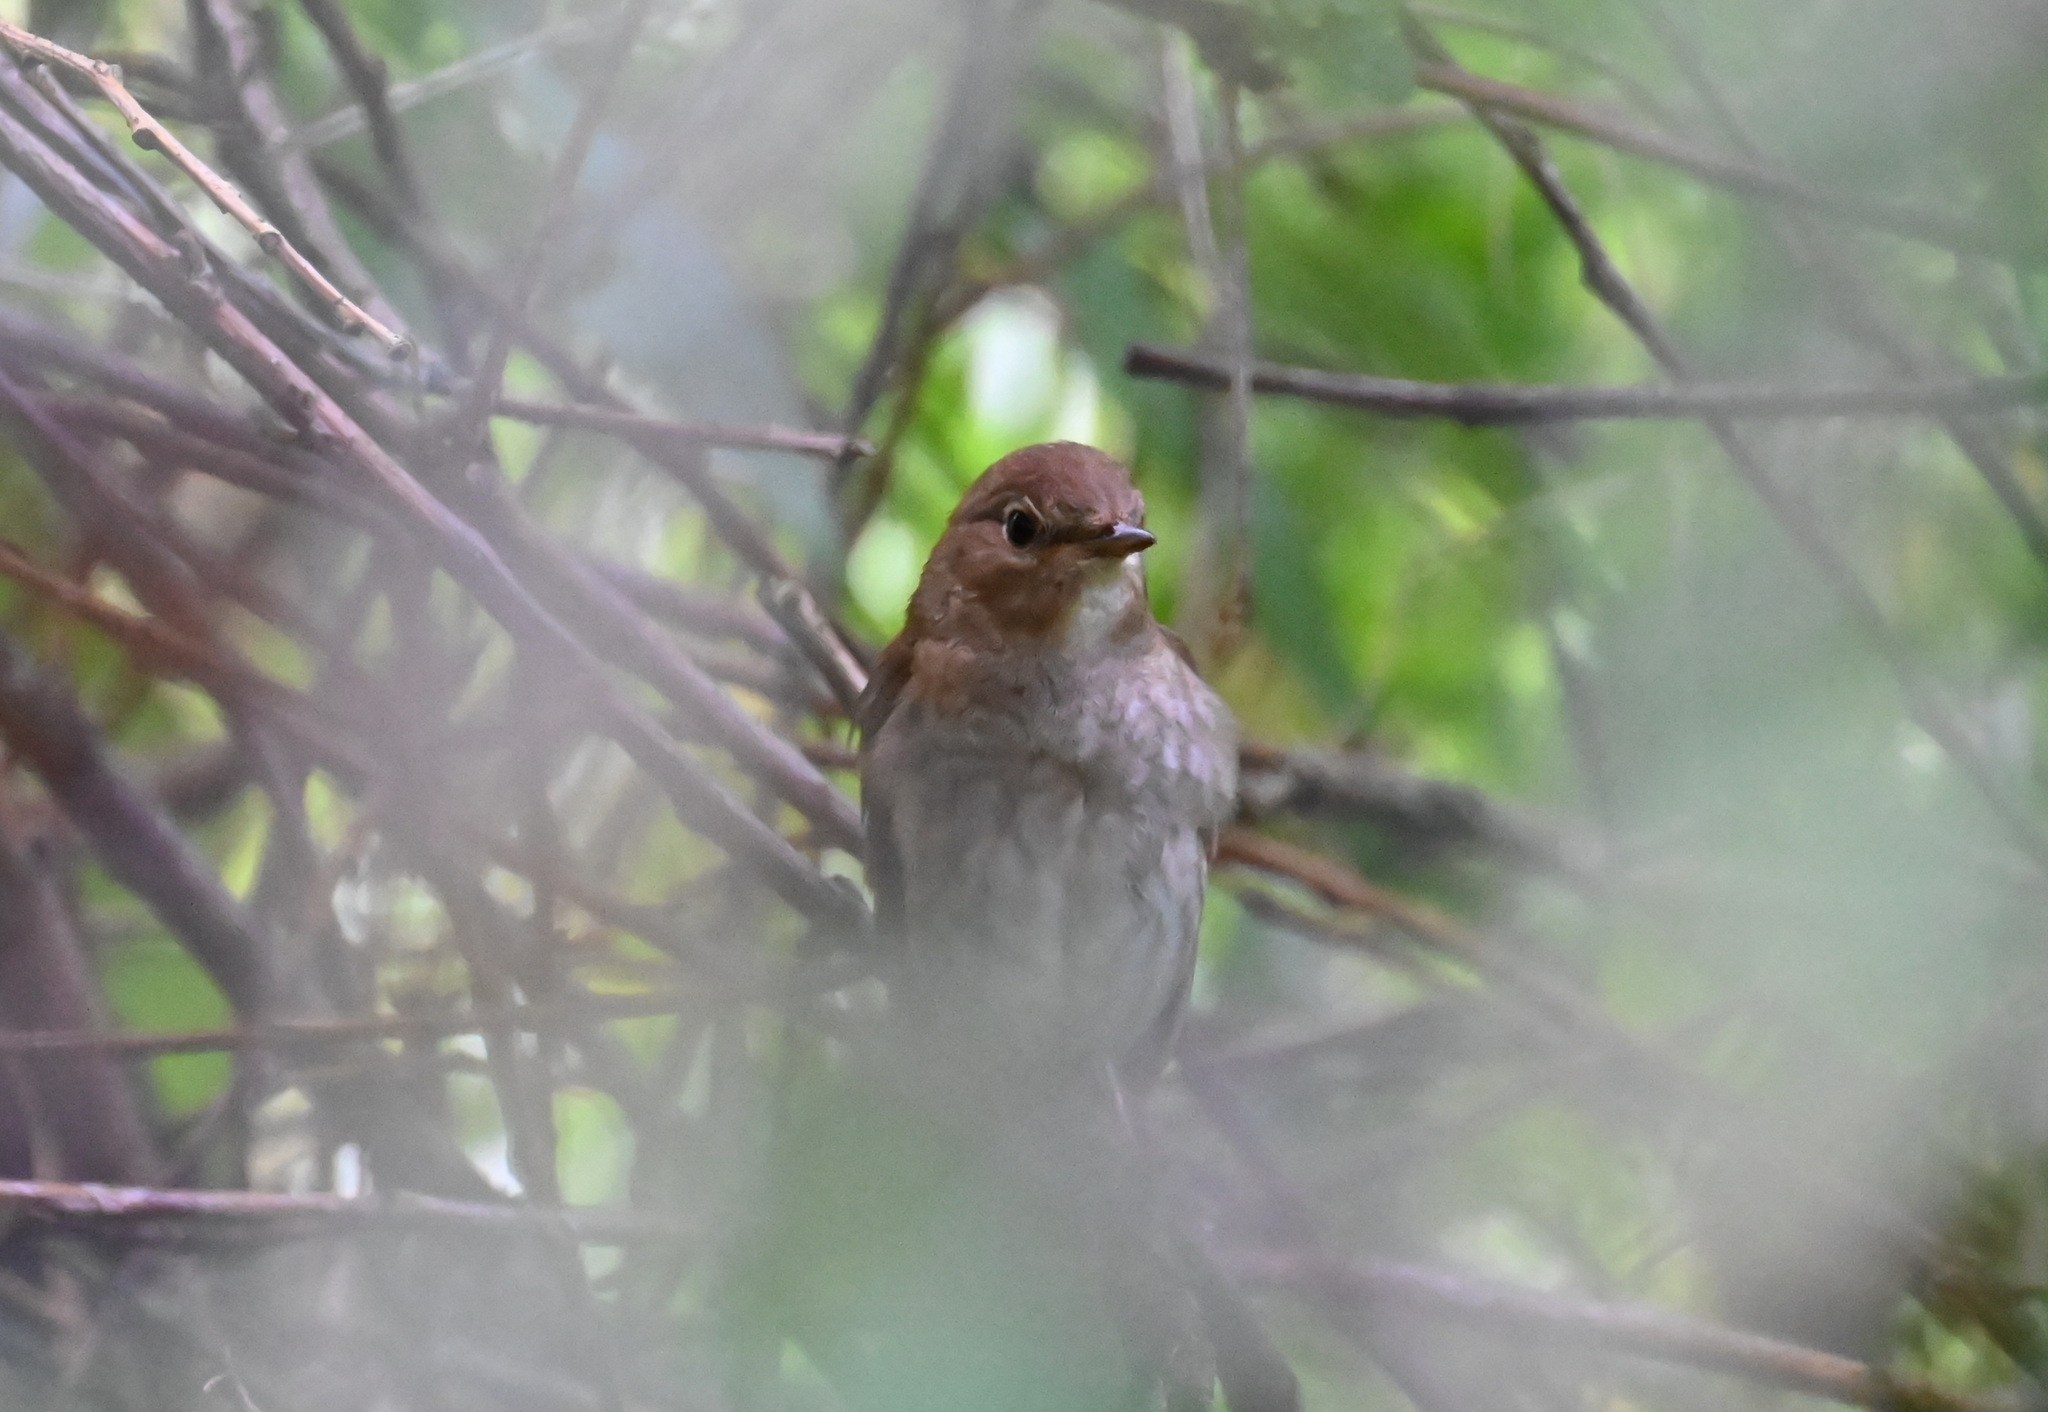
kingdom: Animalia
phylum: Chordata
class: Aves
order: Passeriformes
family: Muscicapidae
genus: Luscinia
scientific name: Luscinia luscinia
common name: Thrush nightingale
